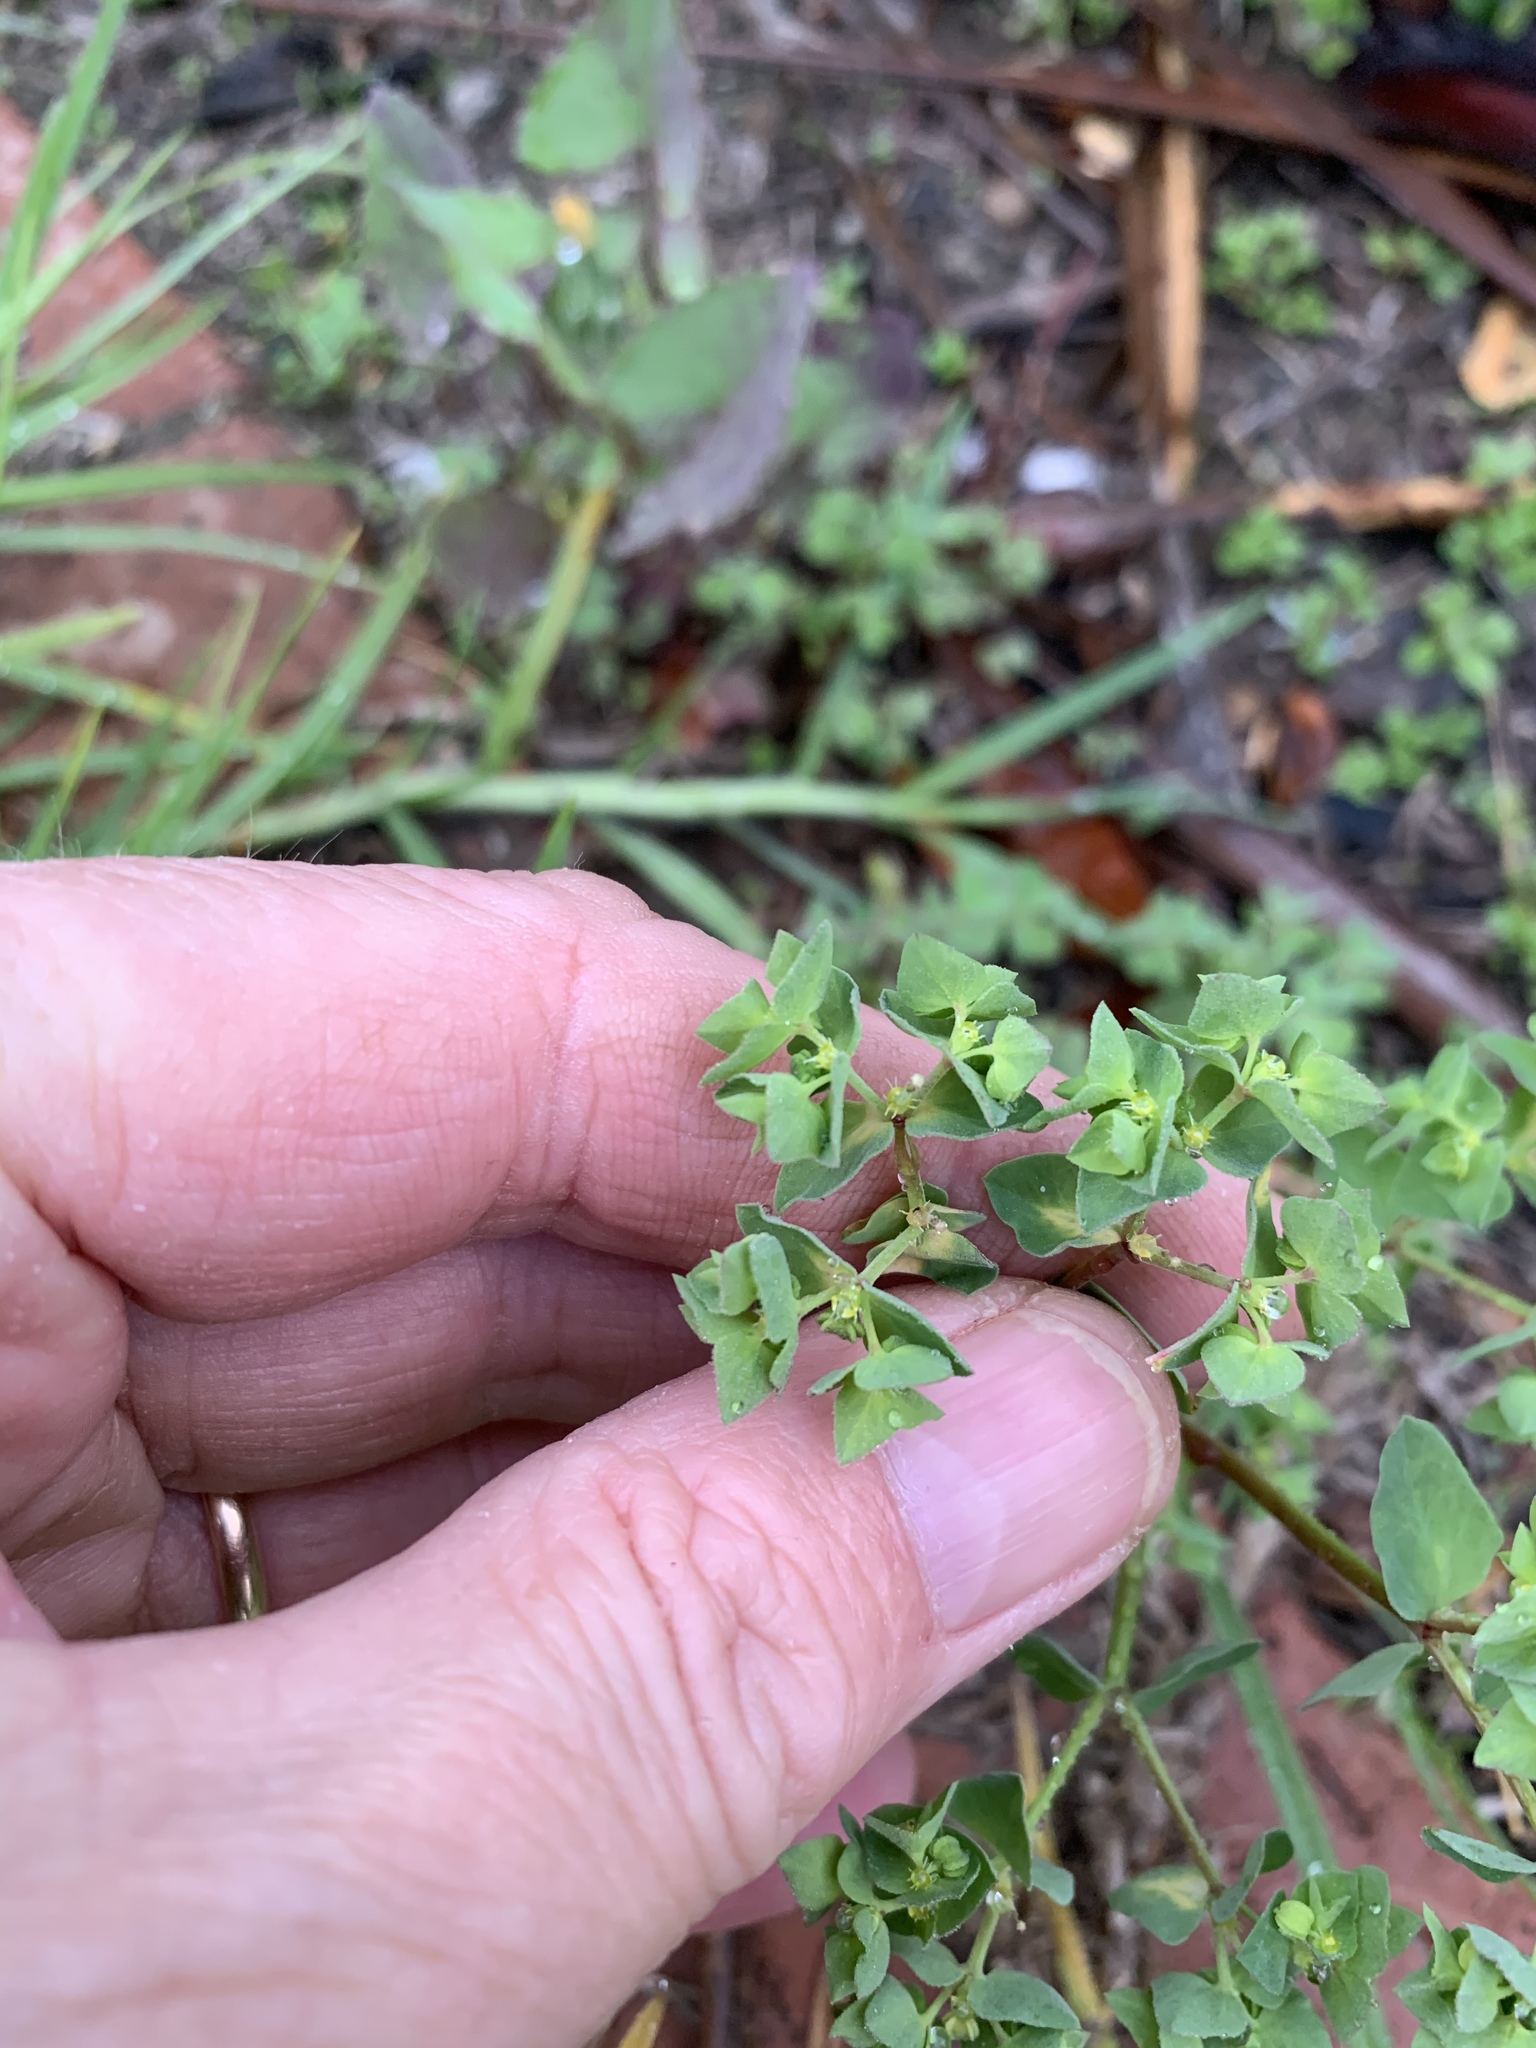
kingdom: Plantae
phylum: Tracheophyta
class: Magnoliopsida
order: Malpighiales
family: Euphorbiaceae
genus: Euphorbia
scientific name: Euphorbia peplus
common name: Petty spurge
